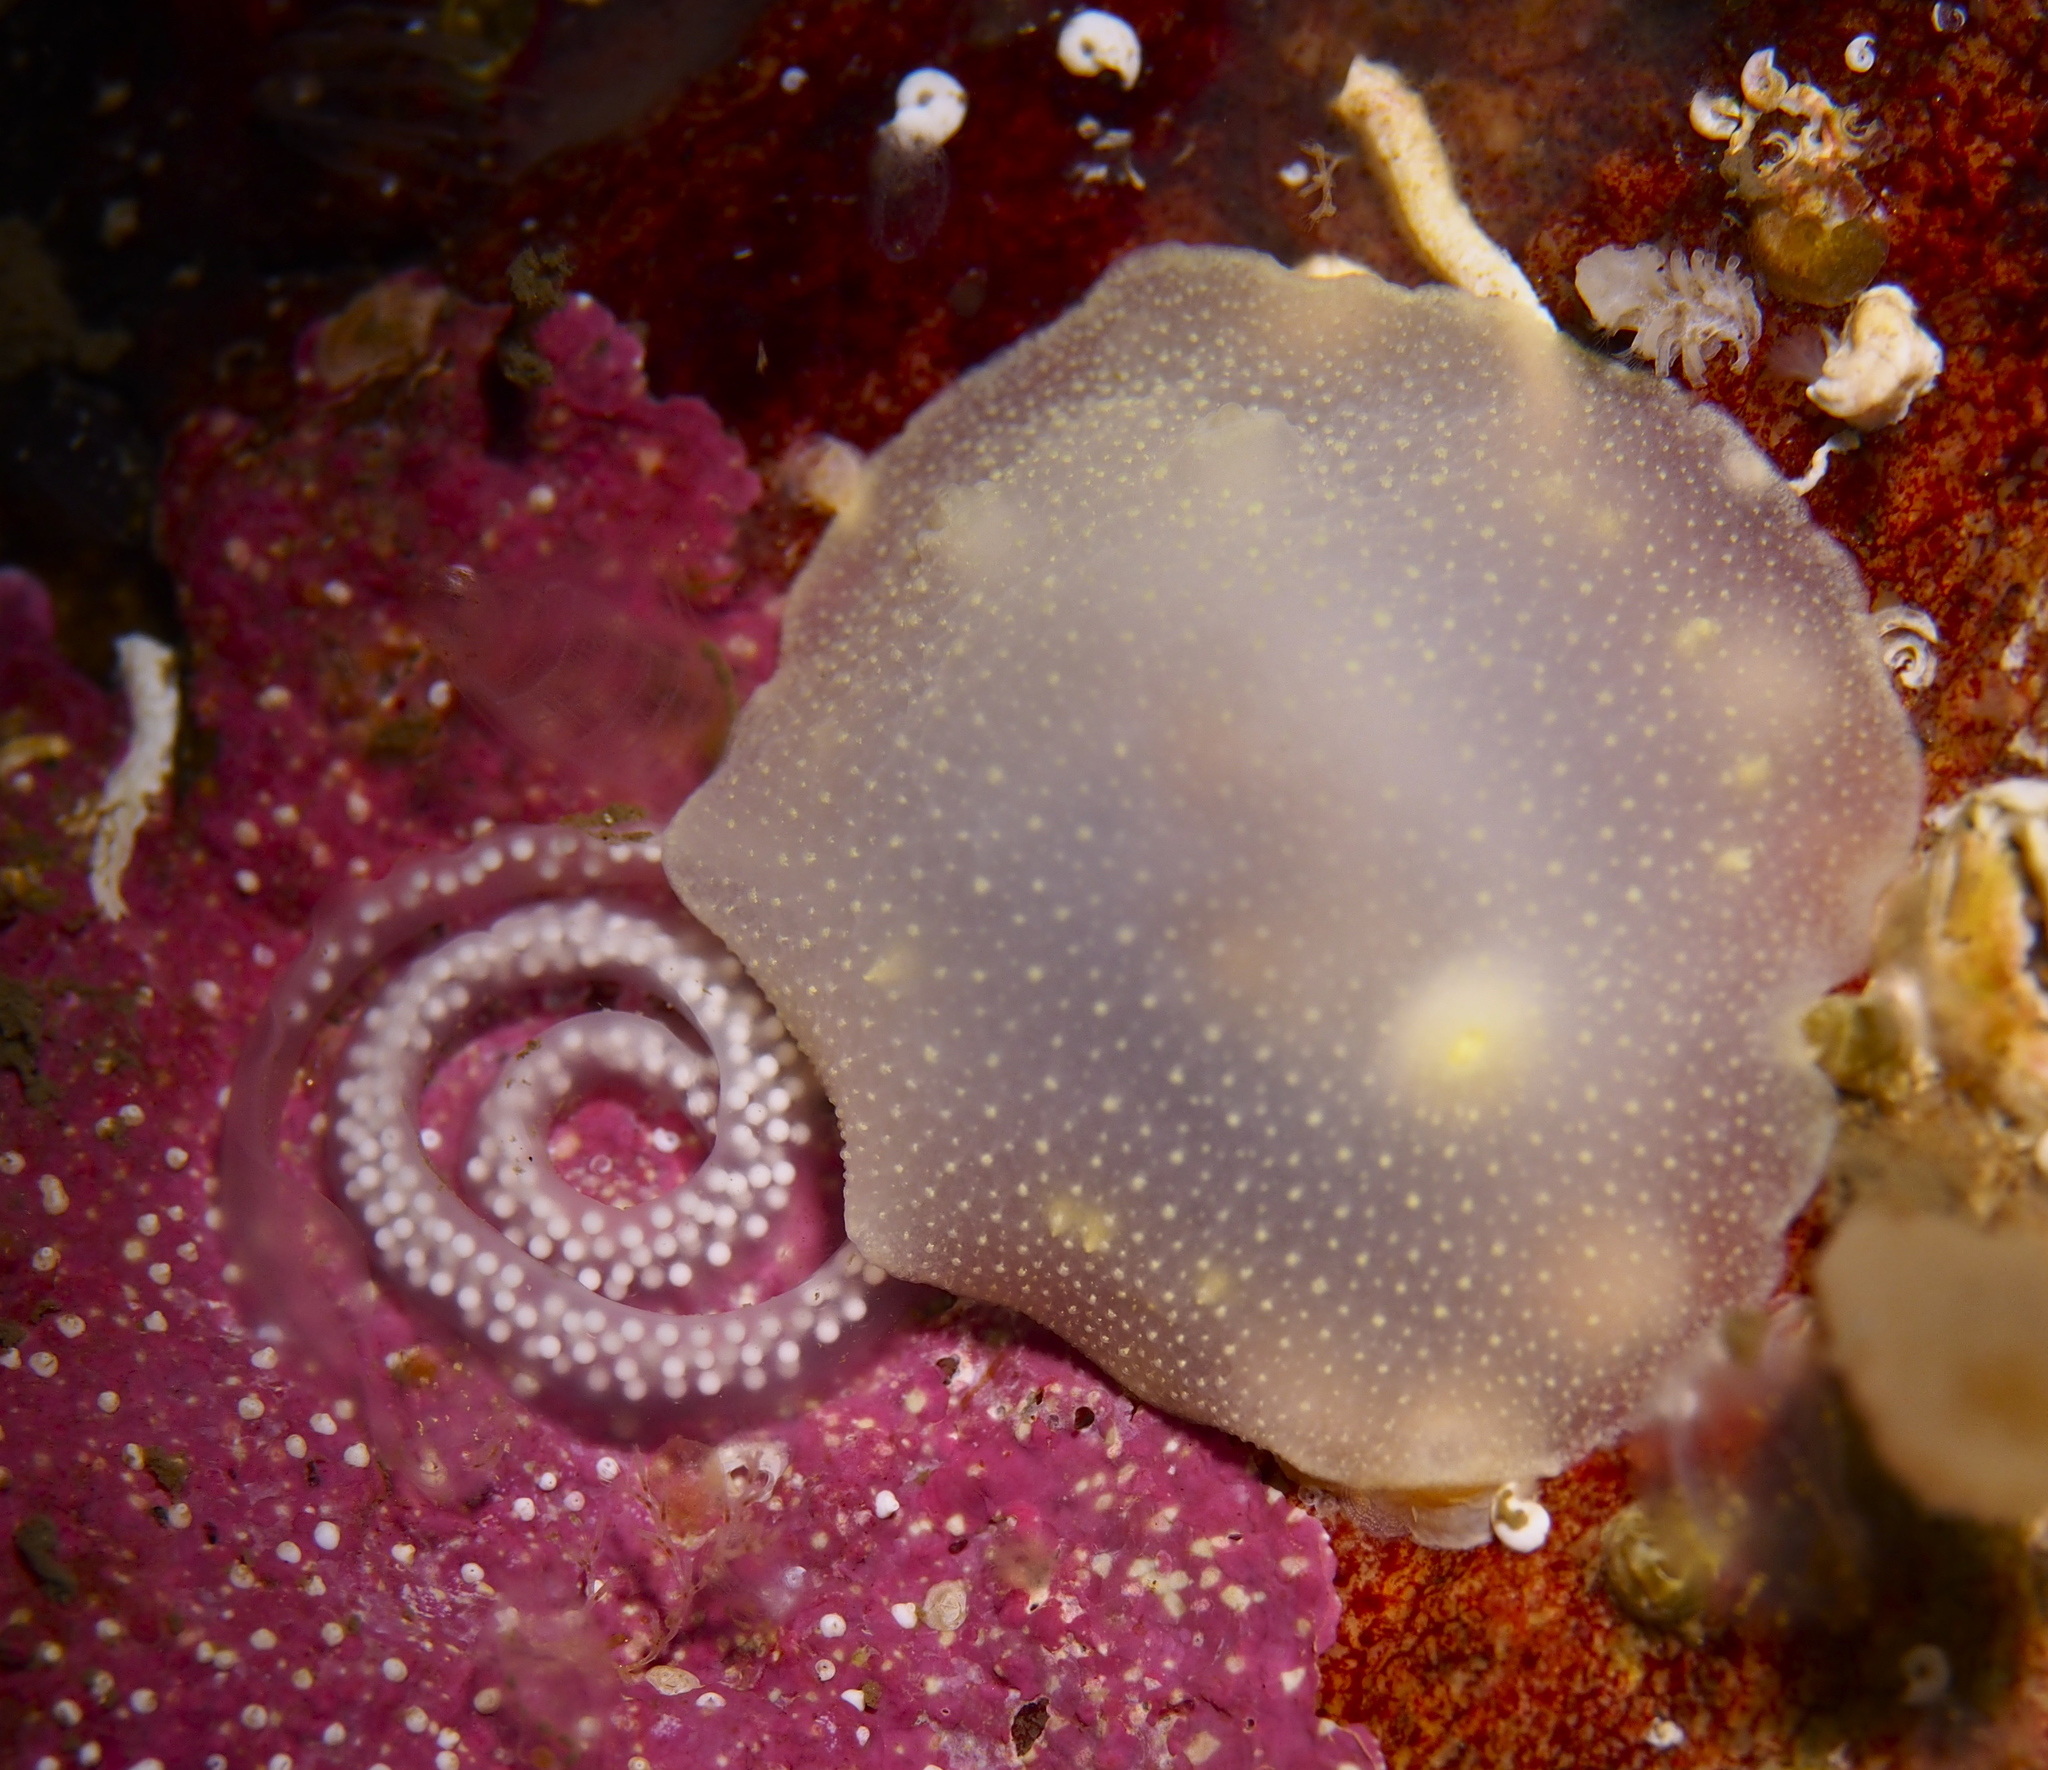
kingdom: Animalia
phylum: Mollusca
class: Gastropoda
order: Nudibranchia
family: Cadlinidae
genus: Cadlina
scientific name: Cadlina laevis
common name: White atlantic cadlina
